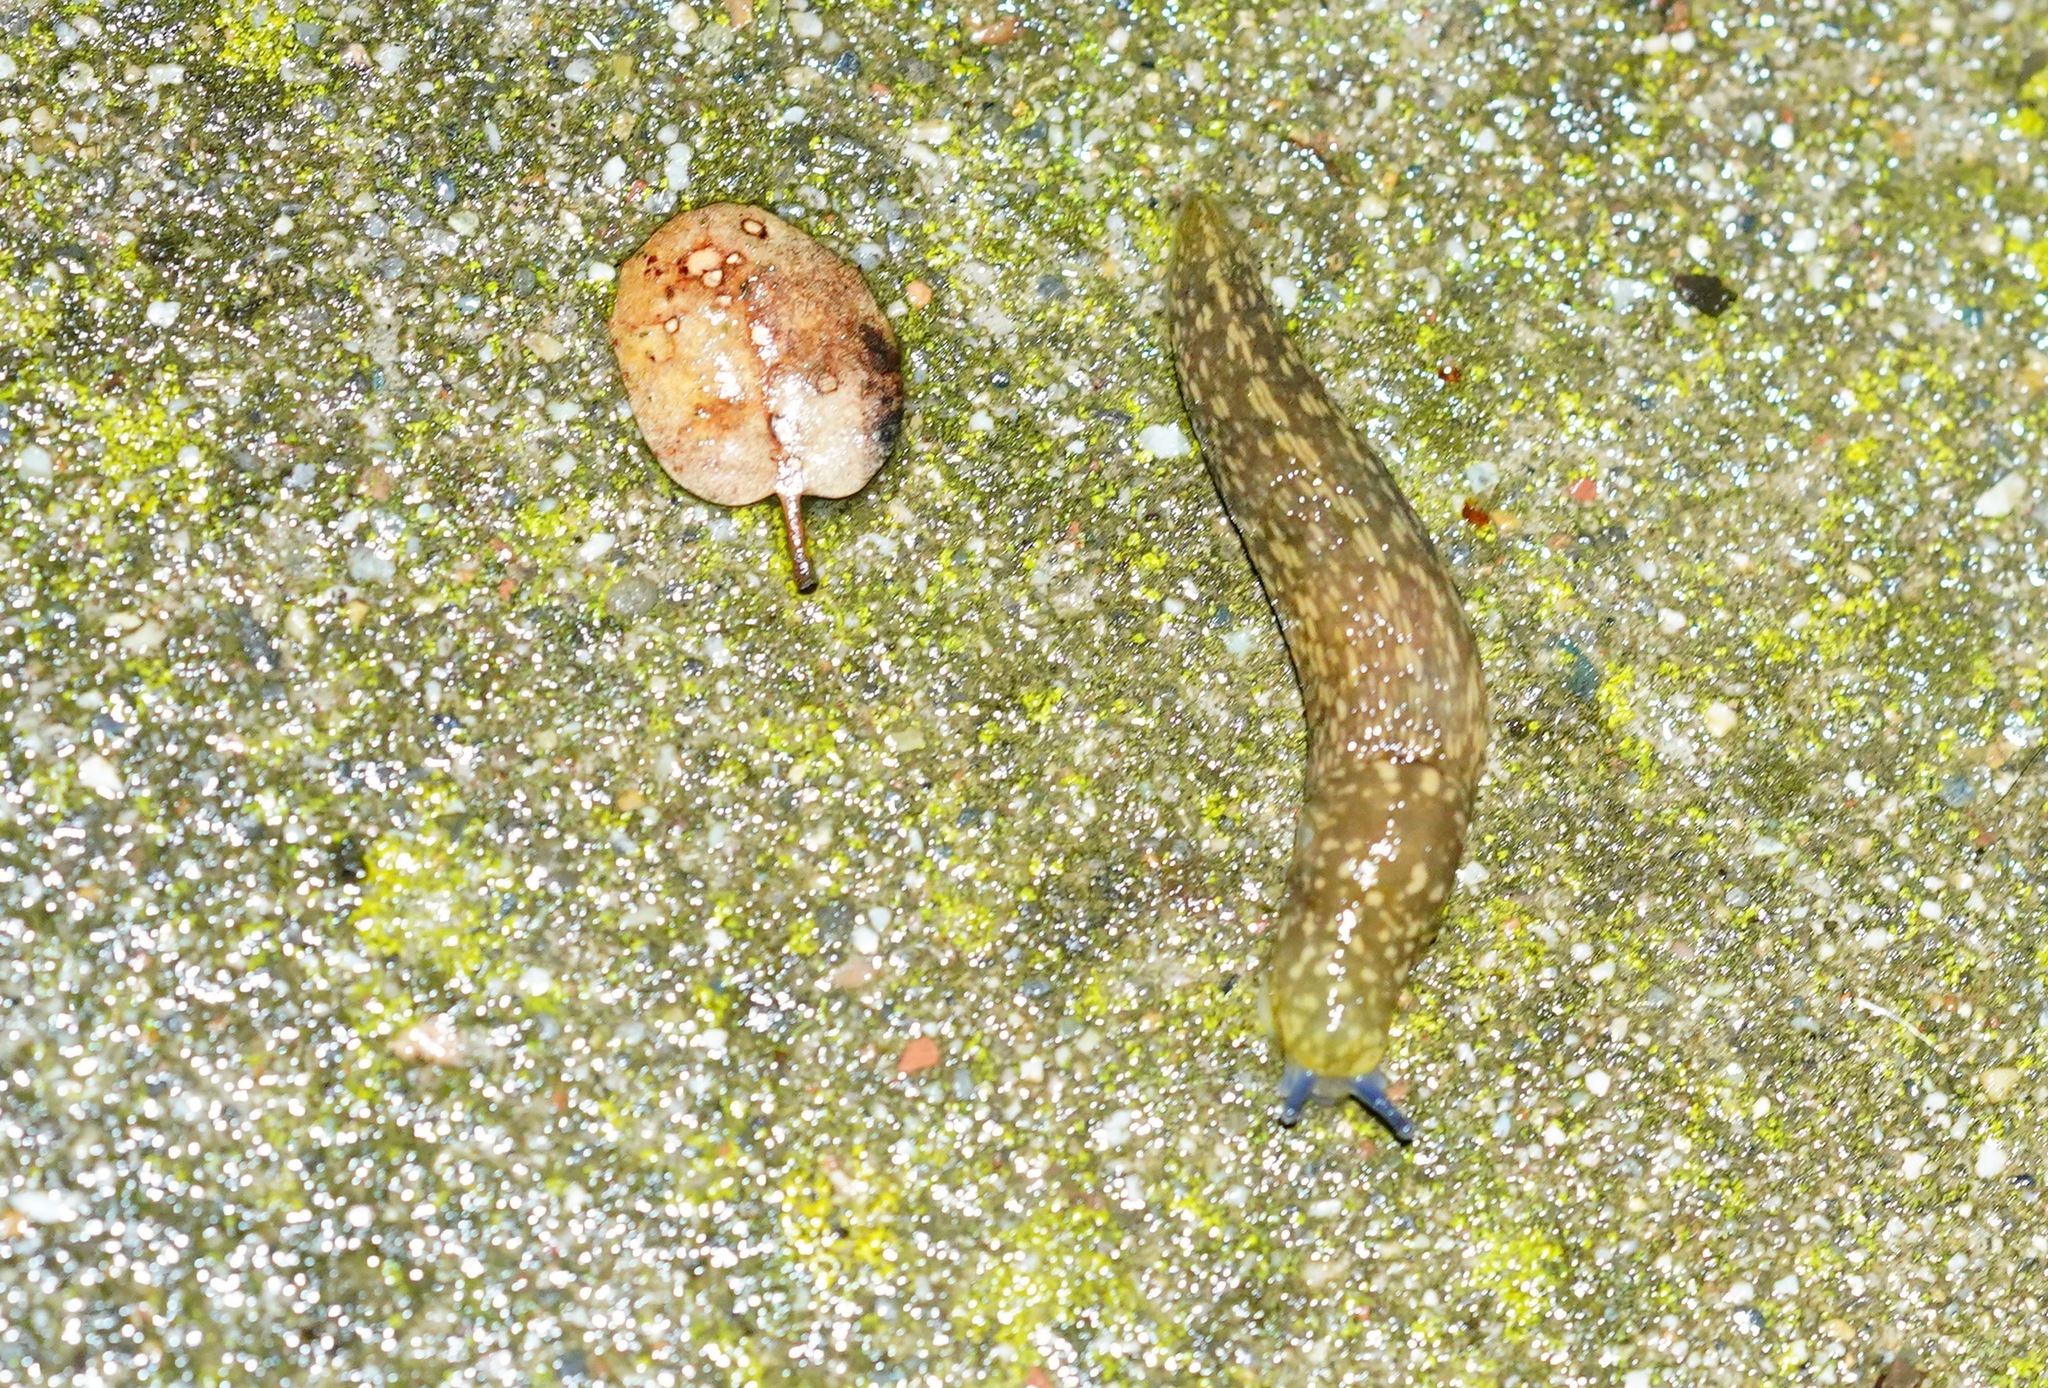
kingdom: Animalia
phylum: Mollusca
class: Gastropoda
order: Stylommatophora
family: Limacidae
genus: Limacus
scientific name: Limacus flavus
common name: Yellow gardenslug
